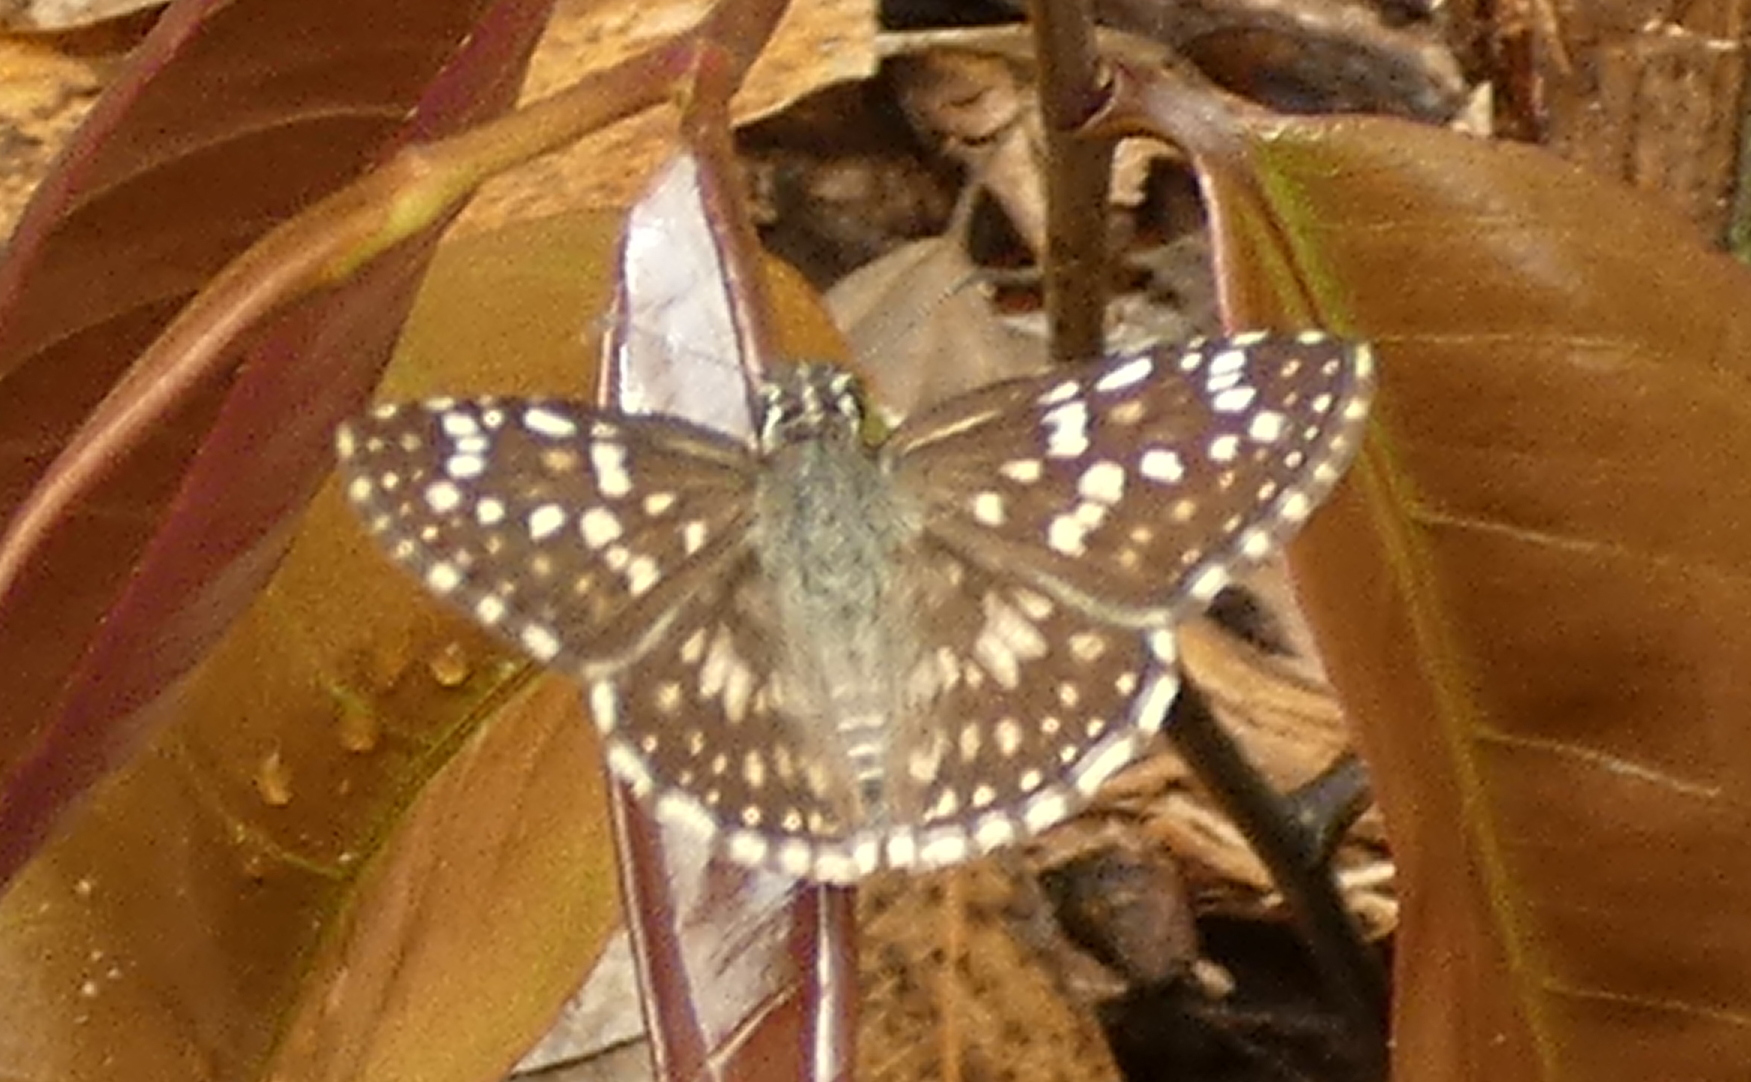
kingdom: Animalia
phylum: Arthropoda
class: Insecta
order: Lepidoptera
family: Hesperiidae
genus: Pyrgus
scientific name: Pyrgus oileus
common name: Tropical checkered-skipper
